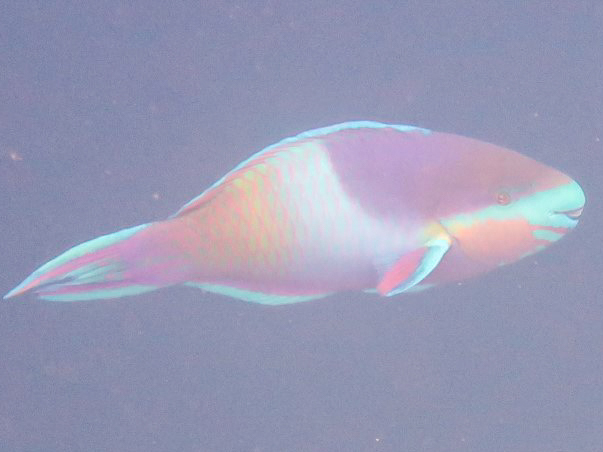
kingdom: Animalia
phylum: Chordata
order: Perciformes
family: Scaridae
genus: Scarus
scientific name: Scarus scaber
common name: Dusky-capped parrotfish
